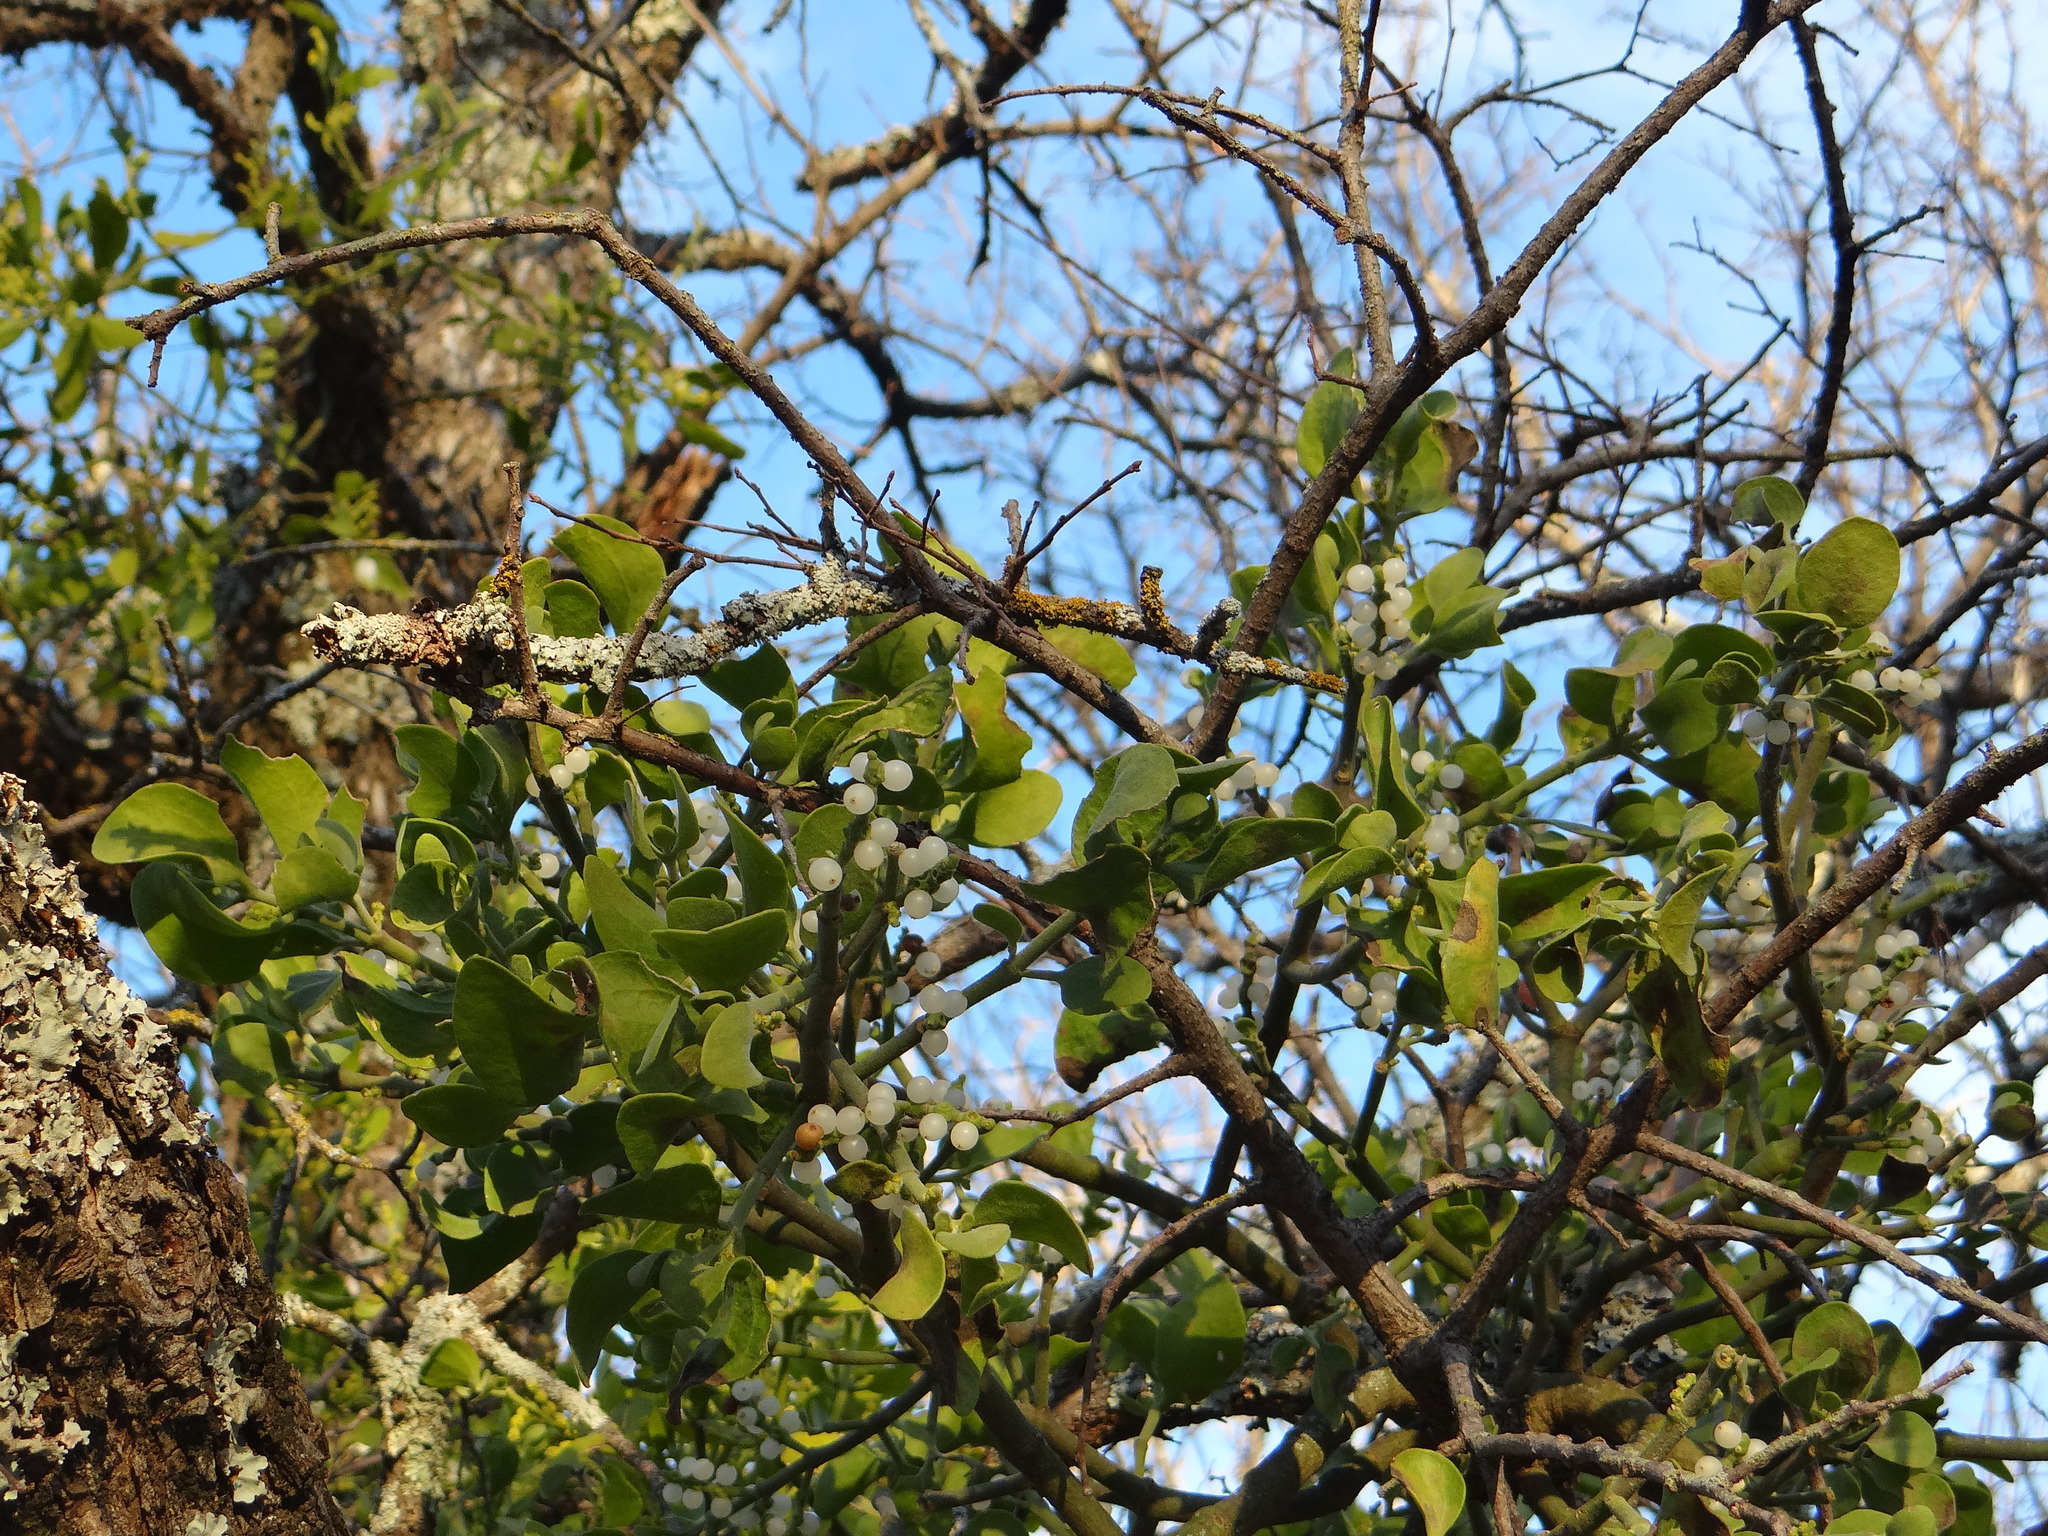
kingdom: Plantae
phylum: Tracheophyta
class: Magnoliopsida
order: Santalales
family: Viscaceae
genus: Phoradendron
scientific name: Phoradendron leucarpum
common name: Pacific mistletoe
